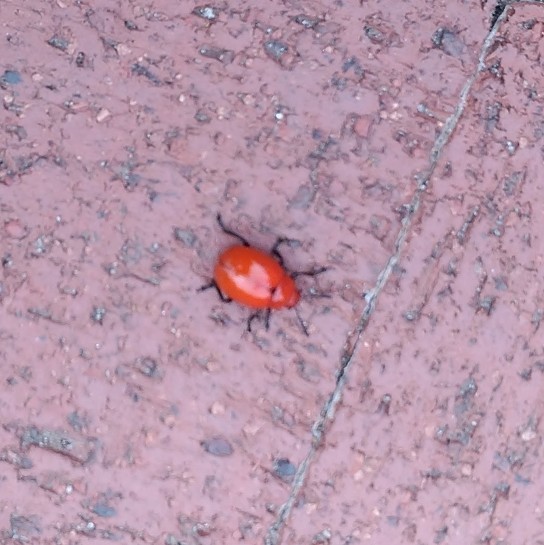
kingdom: Animalia
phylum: Arthropoda
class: Insecta
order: Coleoptera
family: Chrysomelidae
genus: Leptinotarsa
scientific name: Leptinotarsa rubiginosa
